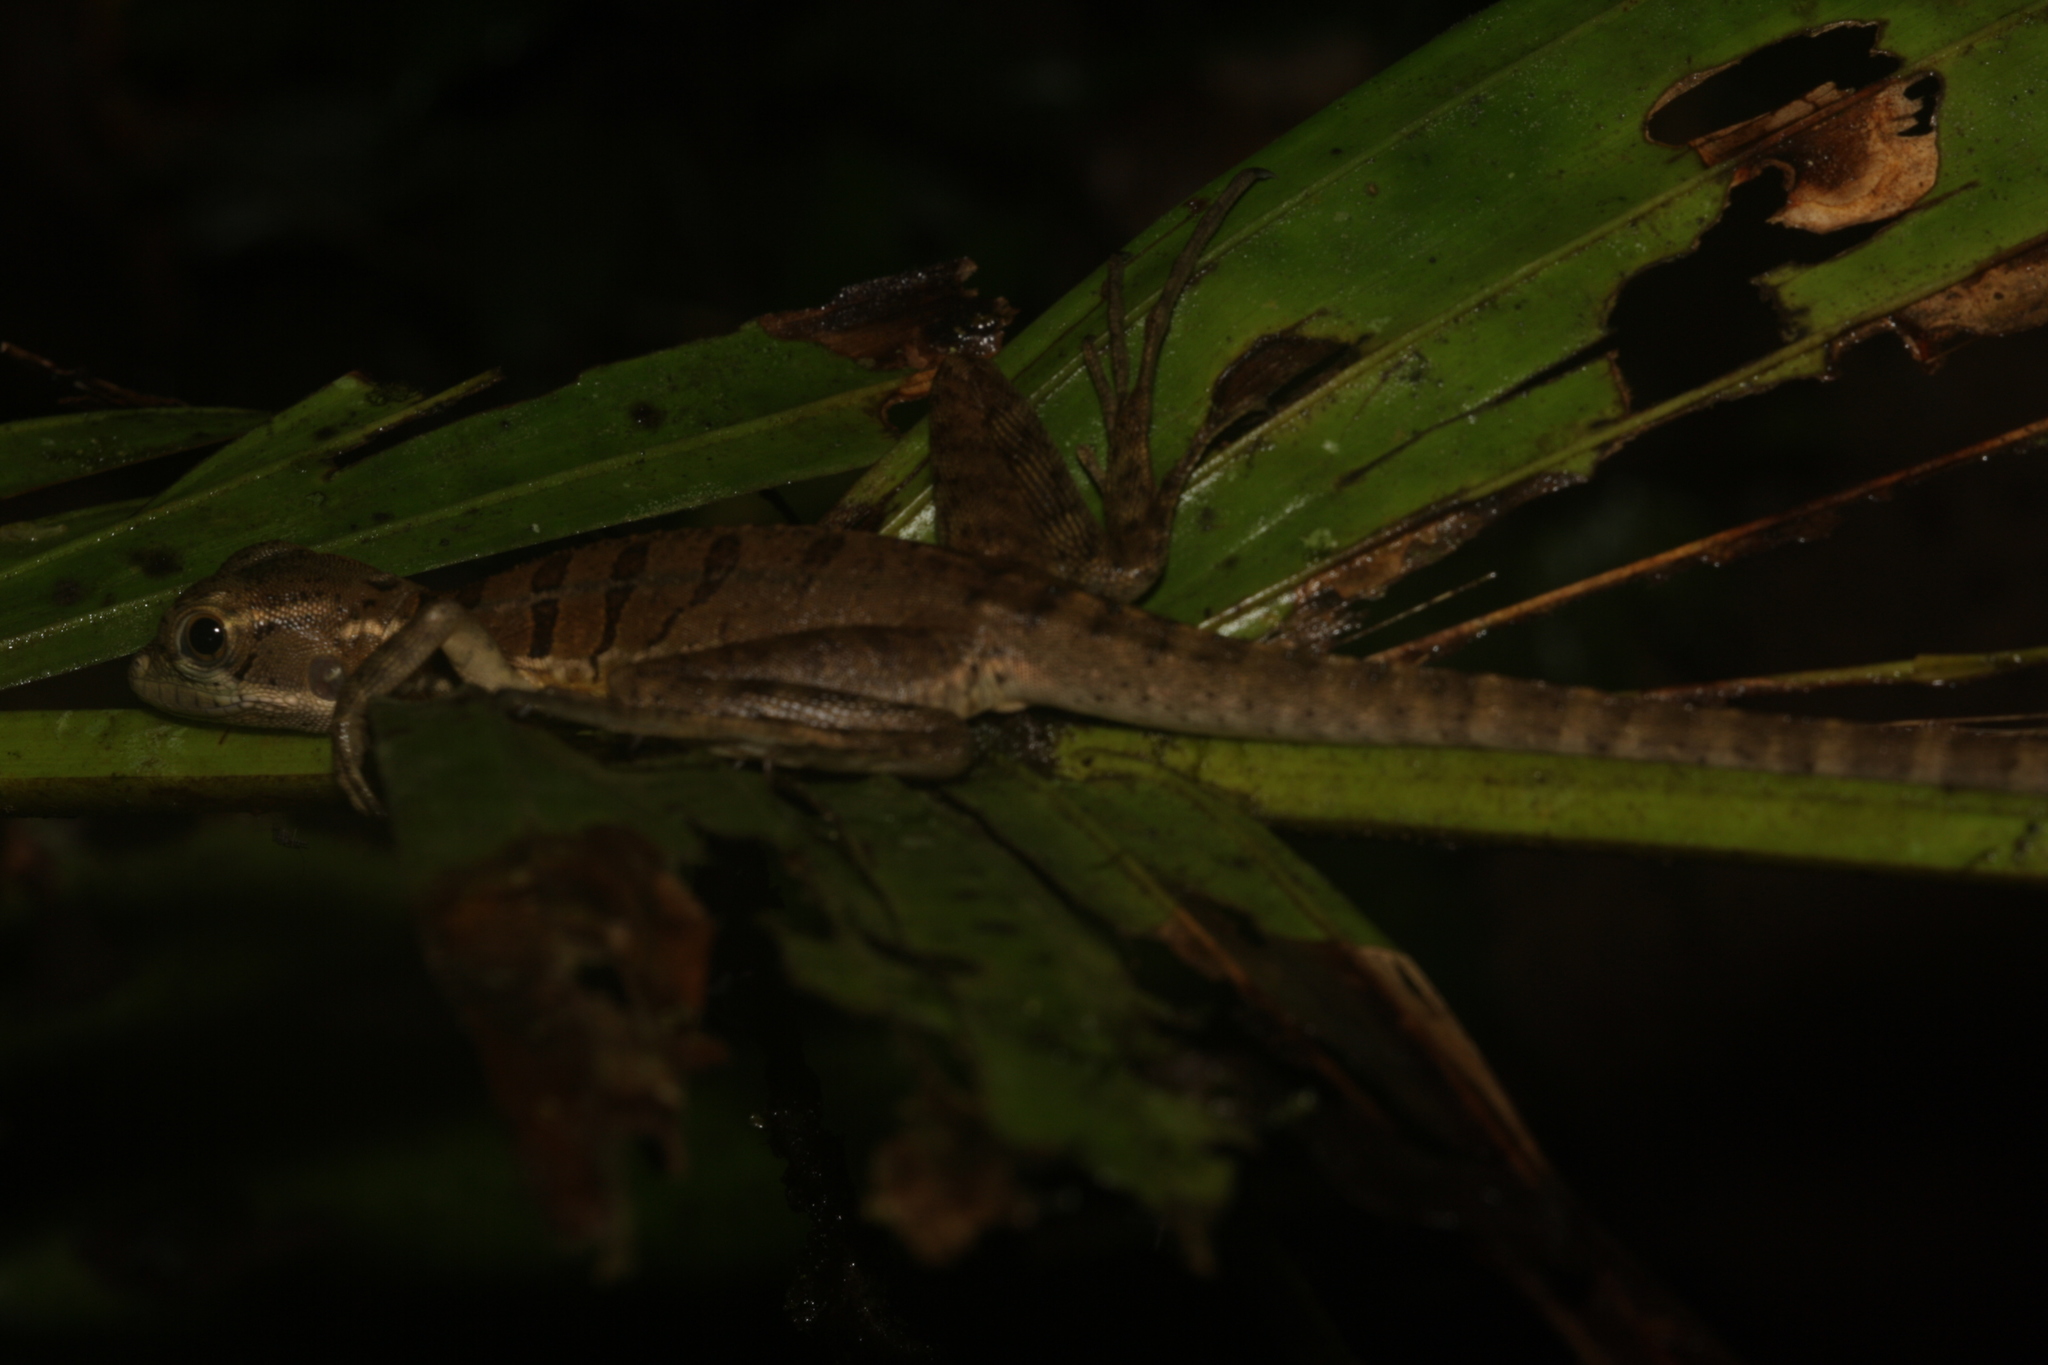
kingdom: Animalia
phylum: Chordata
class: Squamata
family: Corytophanidae
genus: Basiliscus
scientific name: Basiliscus basiliscus
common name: Common basilisk
